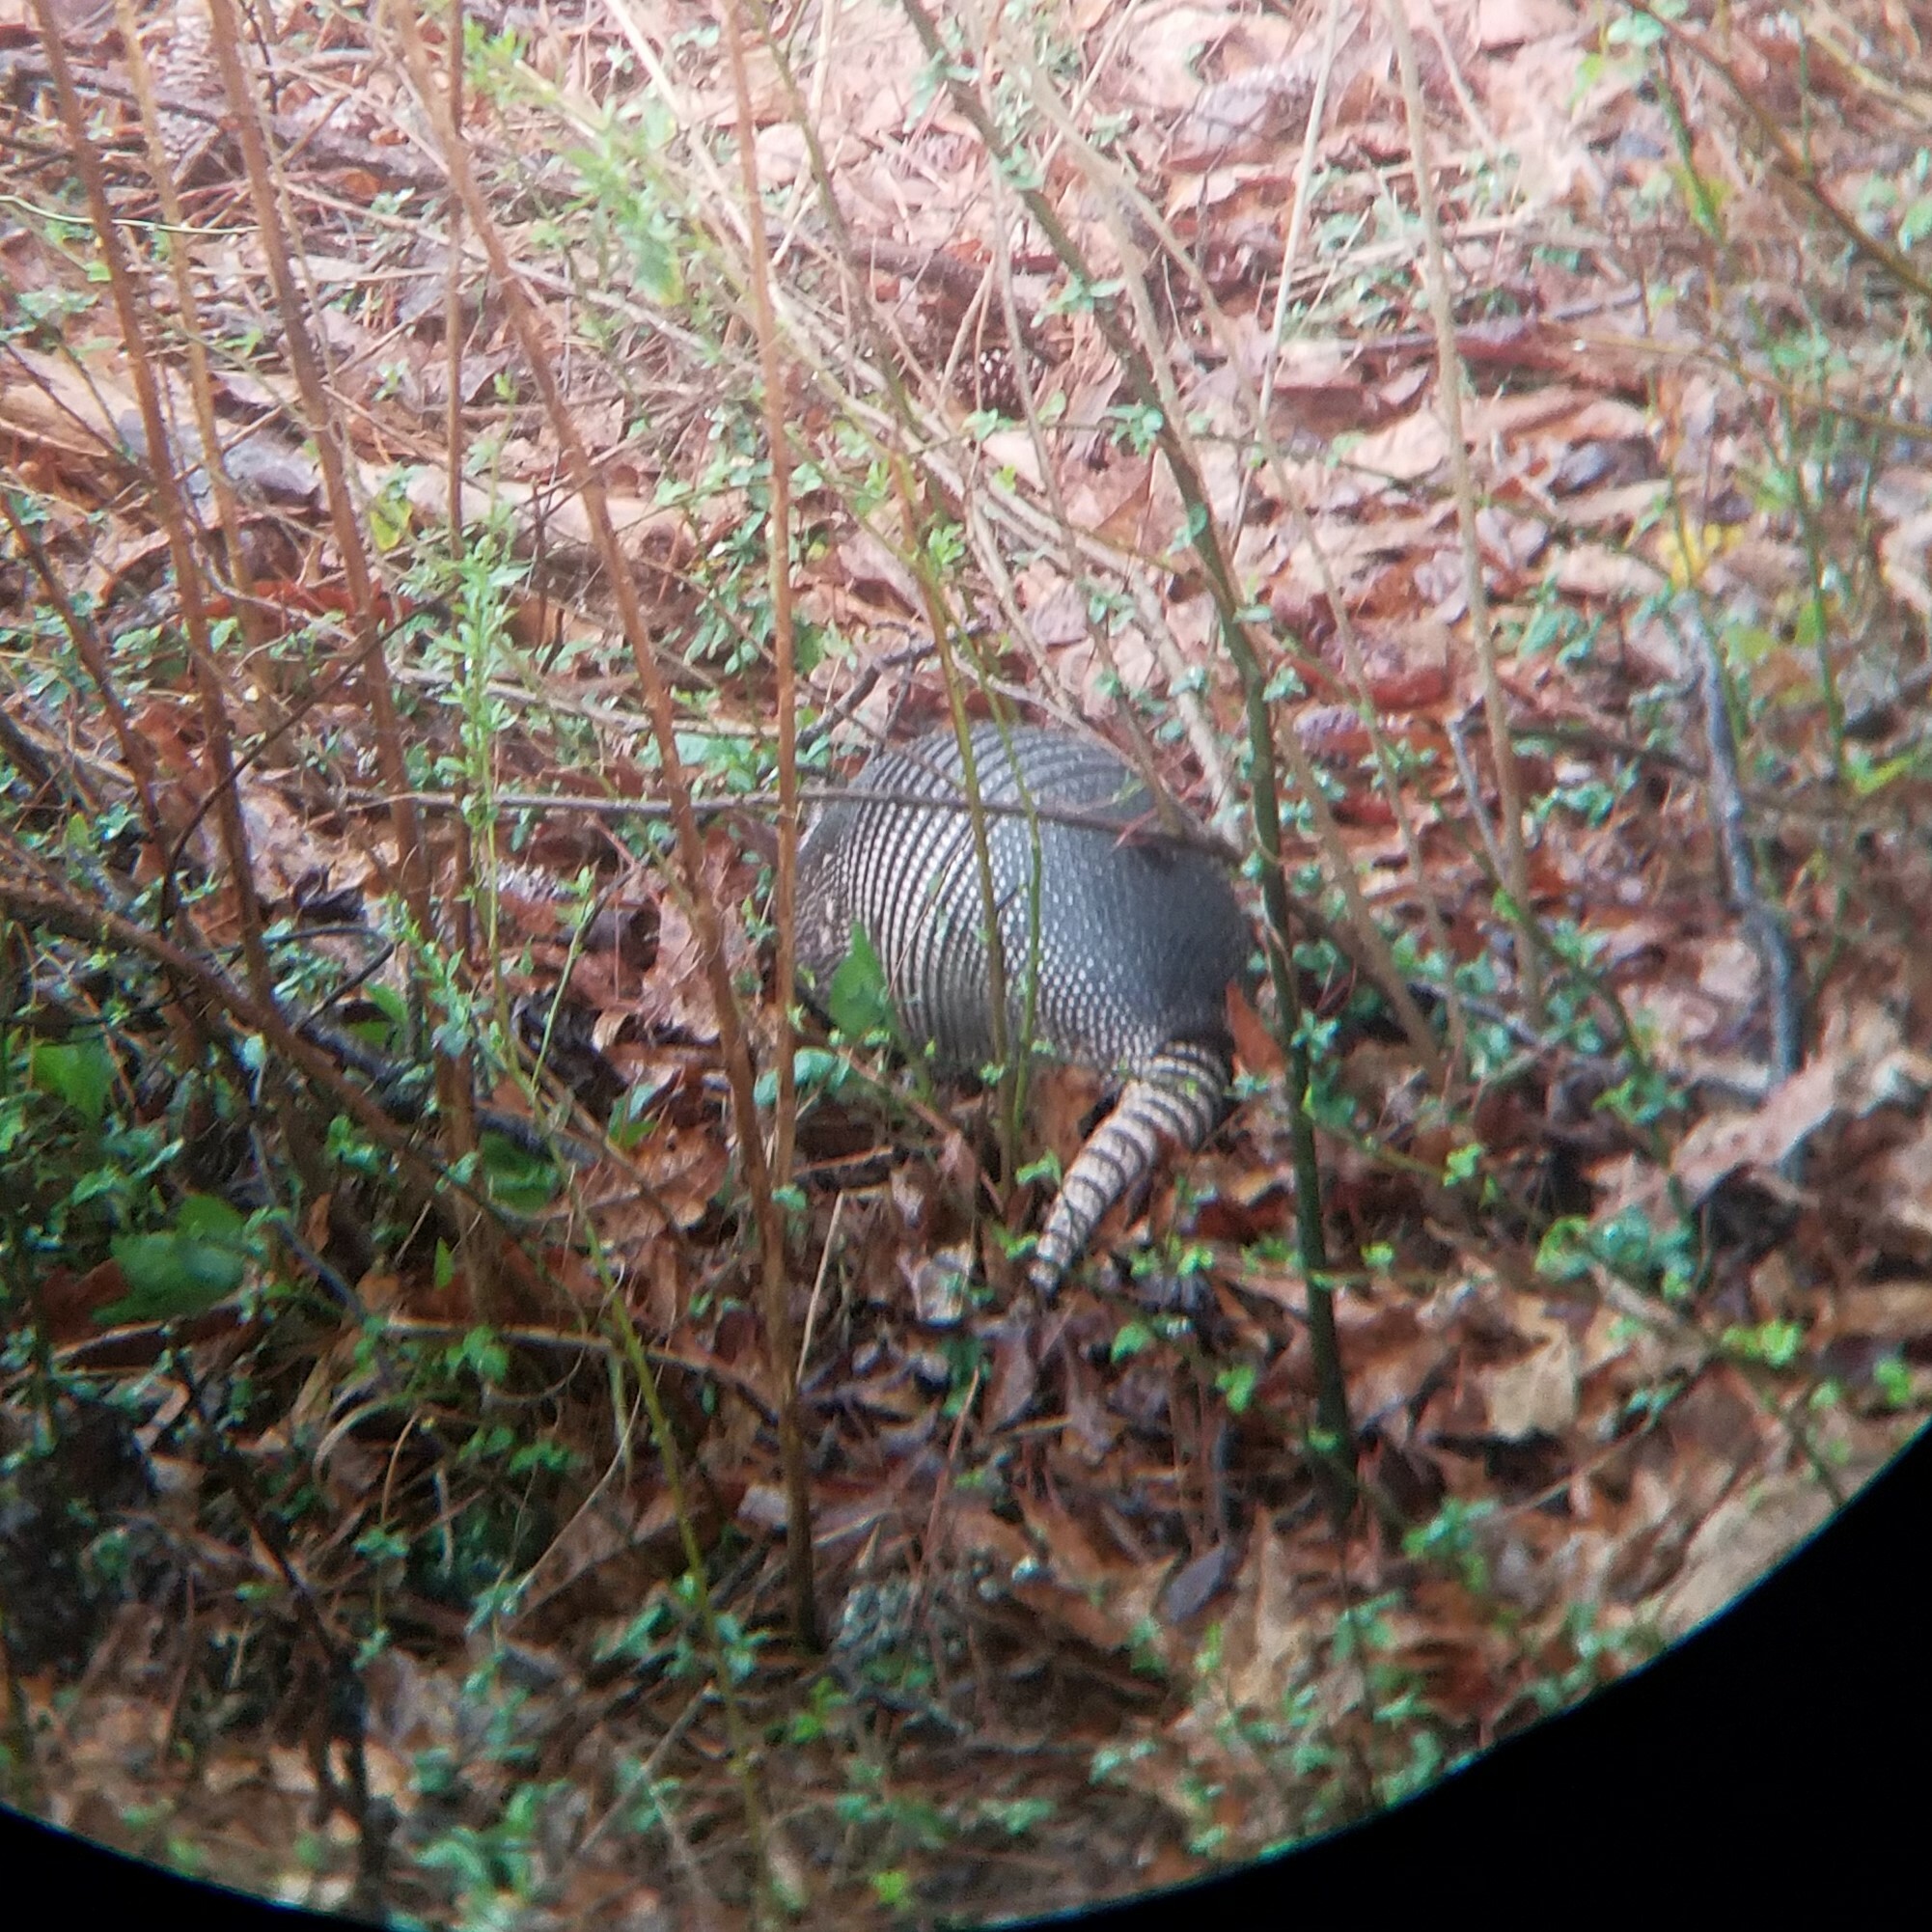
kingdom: Animalia
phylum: Chordata
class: Mammalia
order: Cingulata
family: Dasypodidae
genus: Dasypus
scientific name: Dasypus novemcinctus
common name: Nine-banded armadillo
